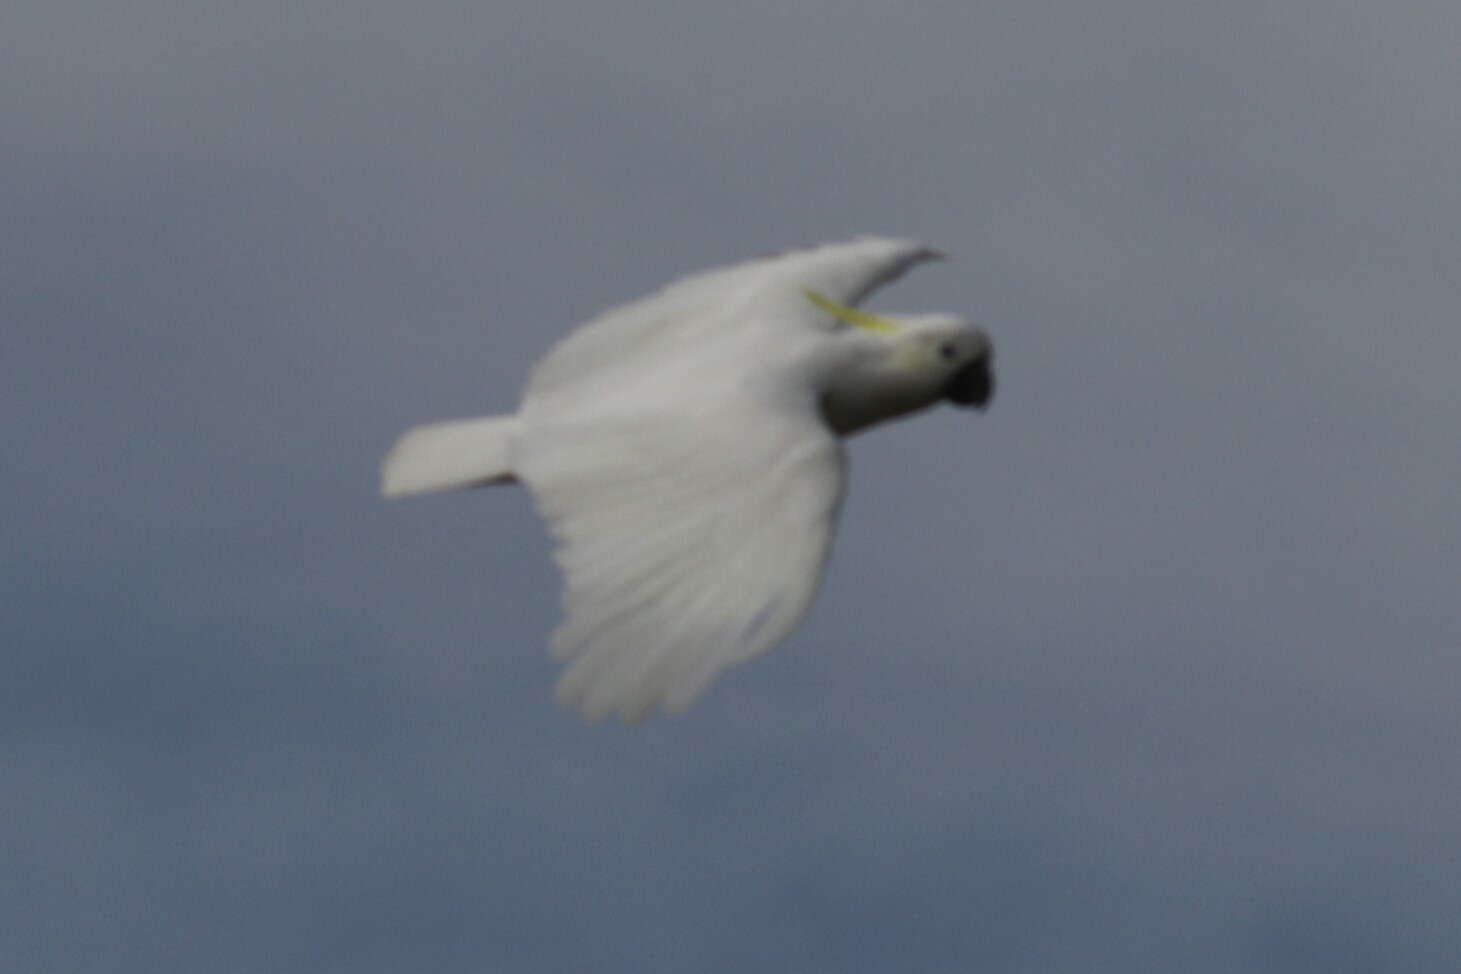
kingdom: Animalia
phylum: Chordata
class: Aves
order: Psittaciformes
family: Psittacidae
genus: Cacatua
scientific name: Cacatua galerita
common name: Sulphur-crested cockatoo
